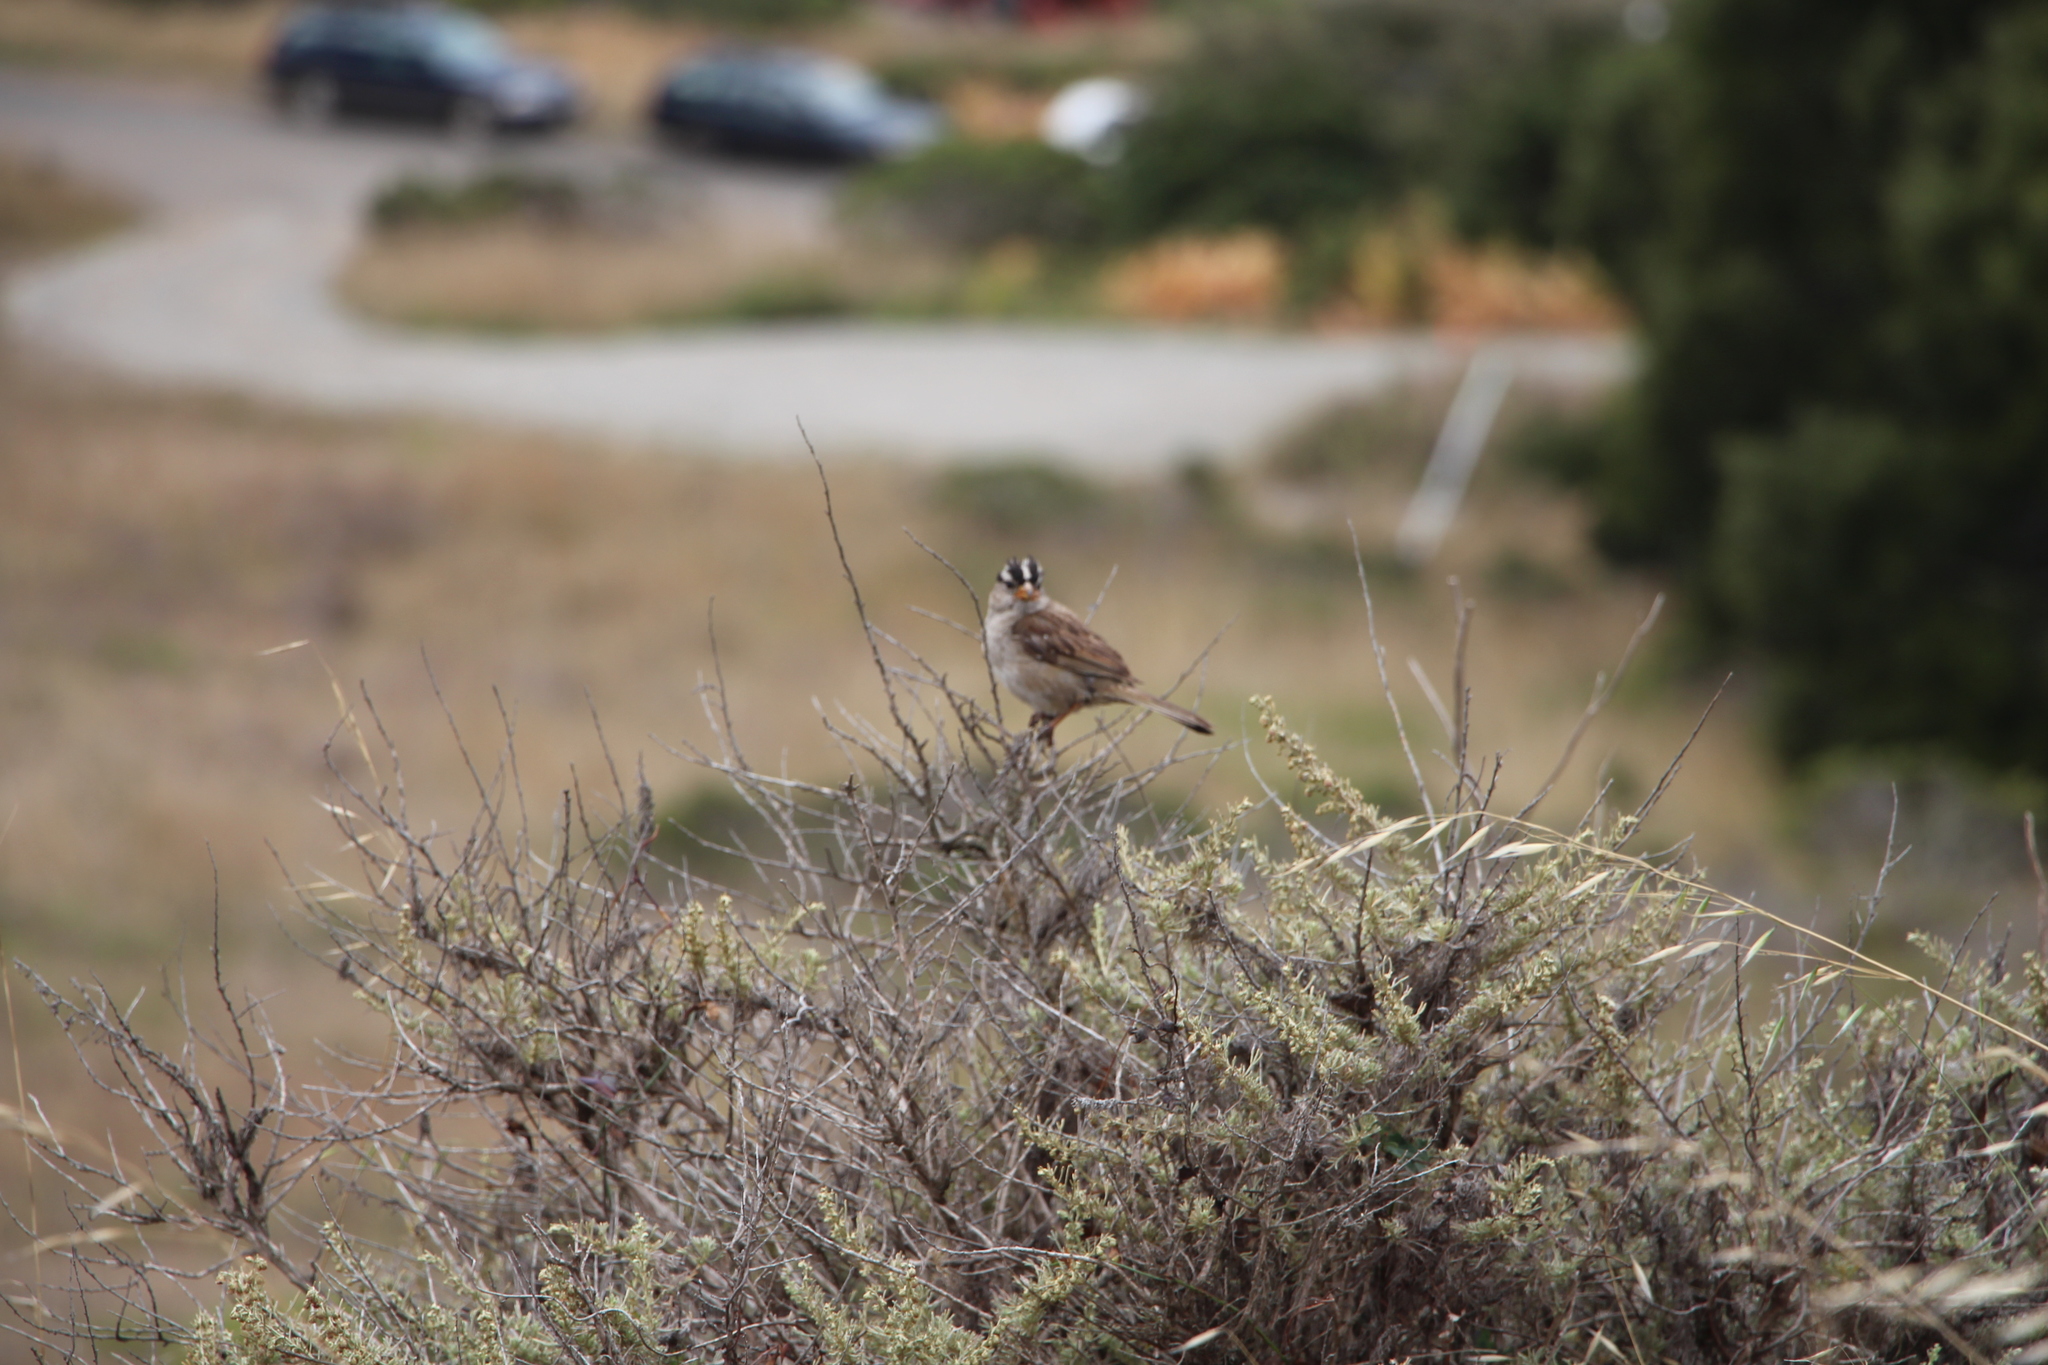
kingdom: Animalia
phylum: Chordata
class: Aves
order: Passeriformes
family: Passerellidae
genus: Zonotrichia
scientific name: Zonotrichia leucophrys
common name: White-crowned sparrow
